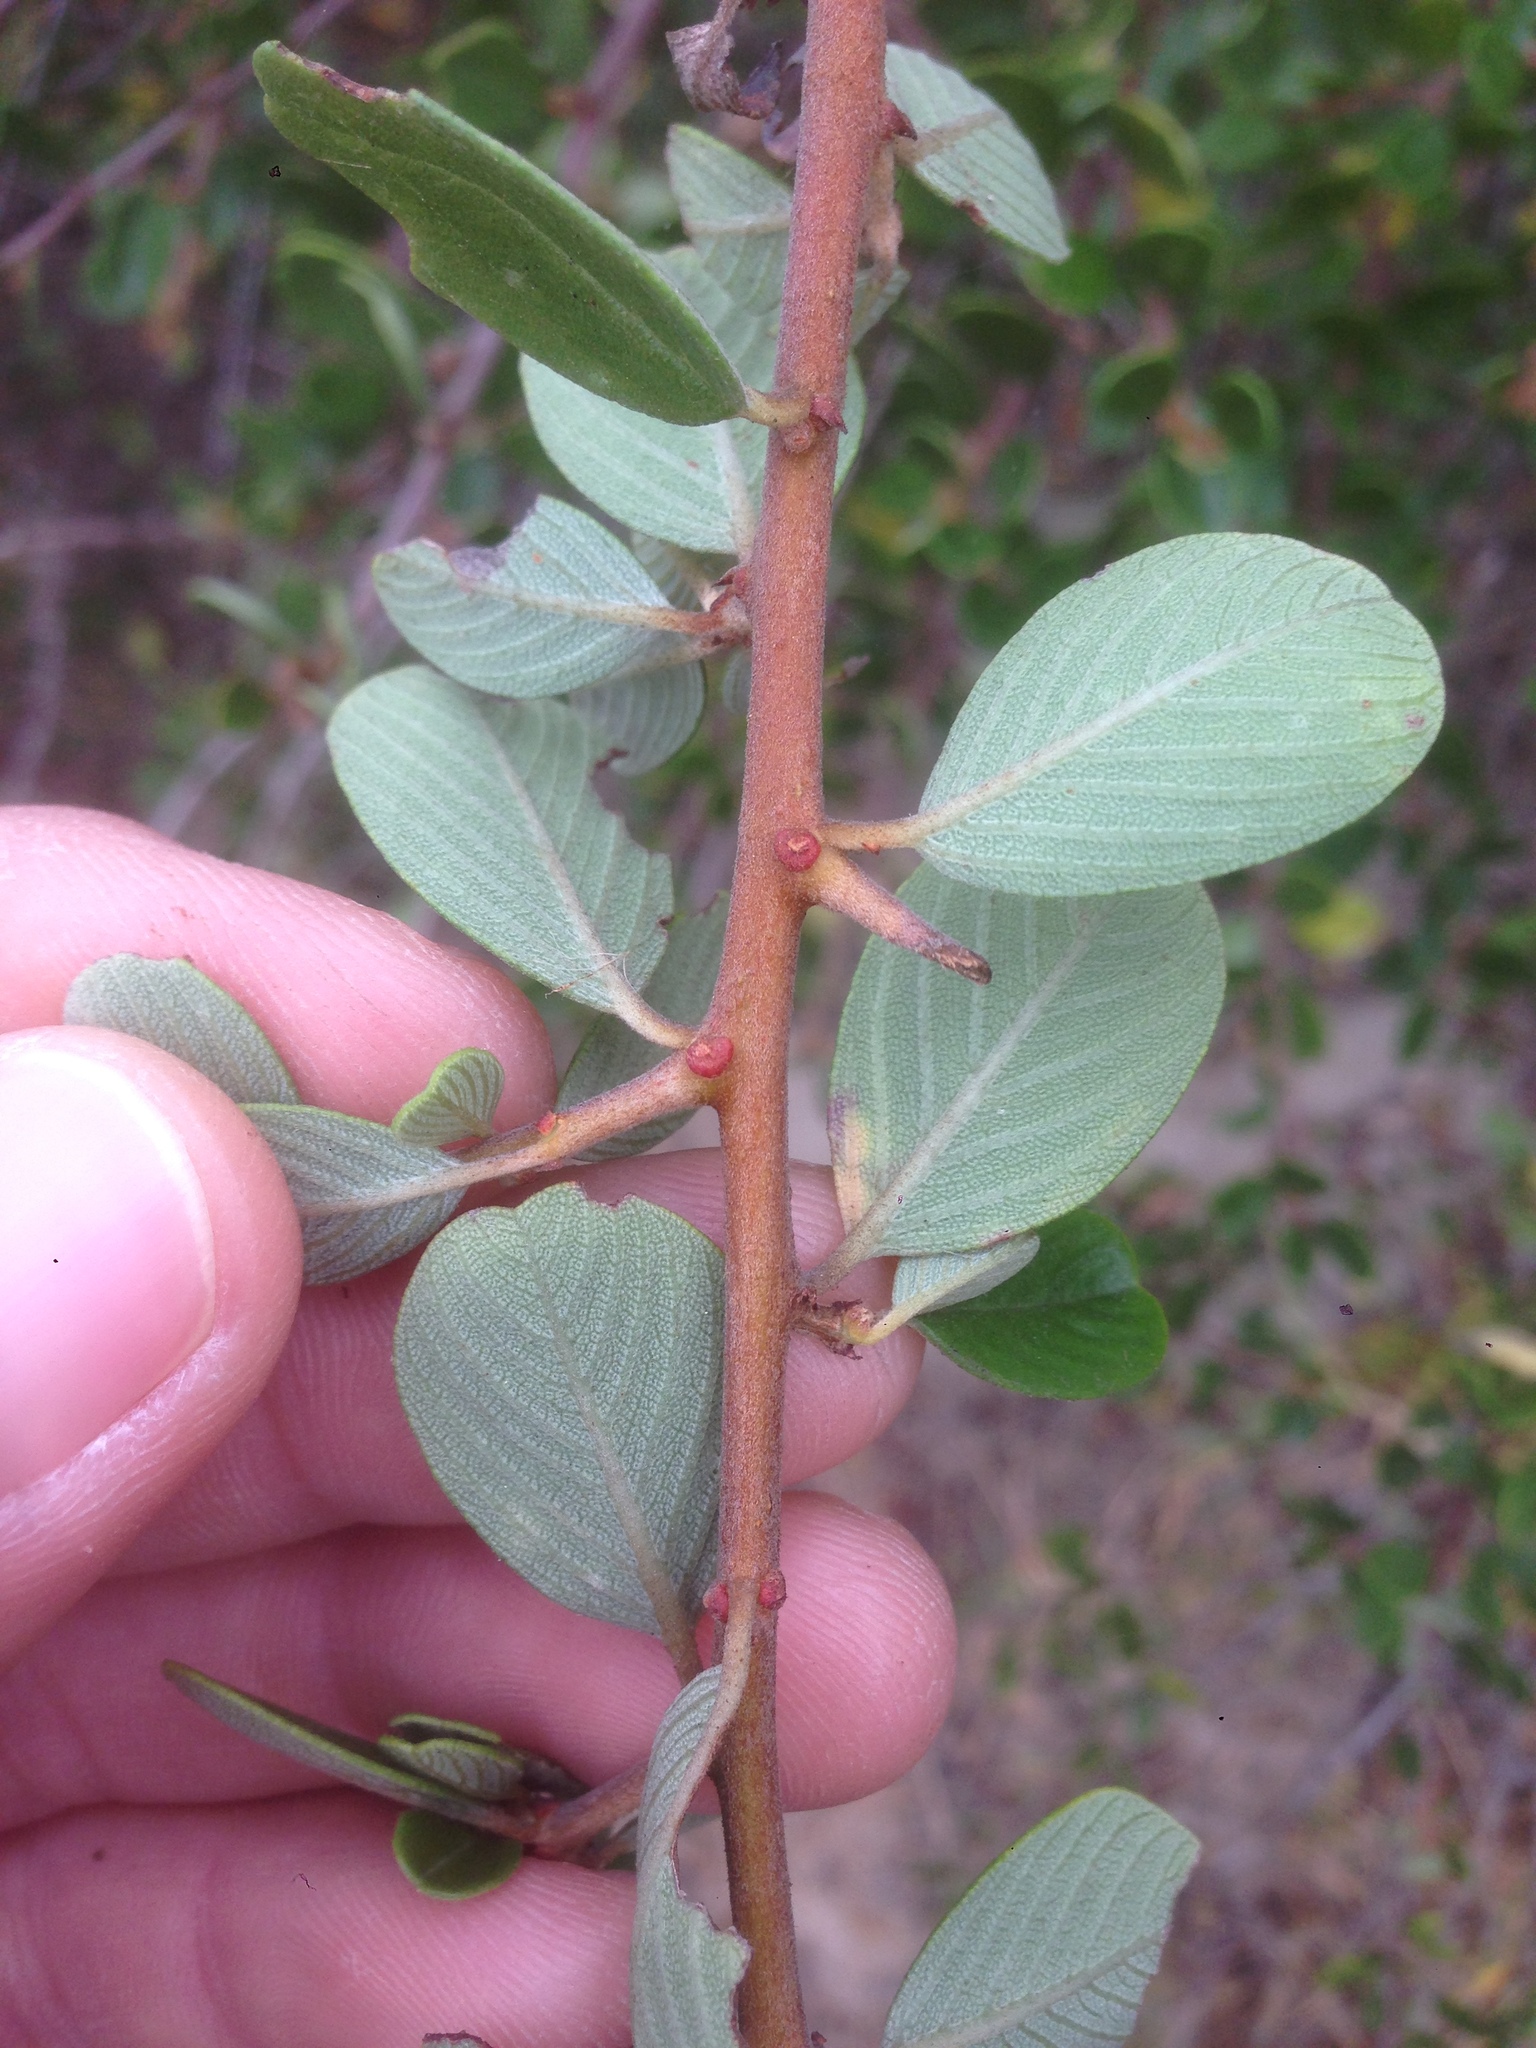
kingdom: Plantae
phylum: Tracheophyta
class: Magnoliopsida
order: Rosales
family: Rhamnaceae
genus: Ceanothus
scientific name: Ceanothus megacarpus
